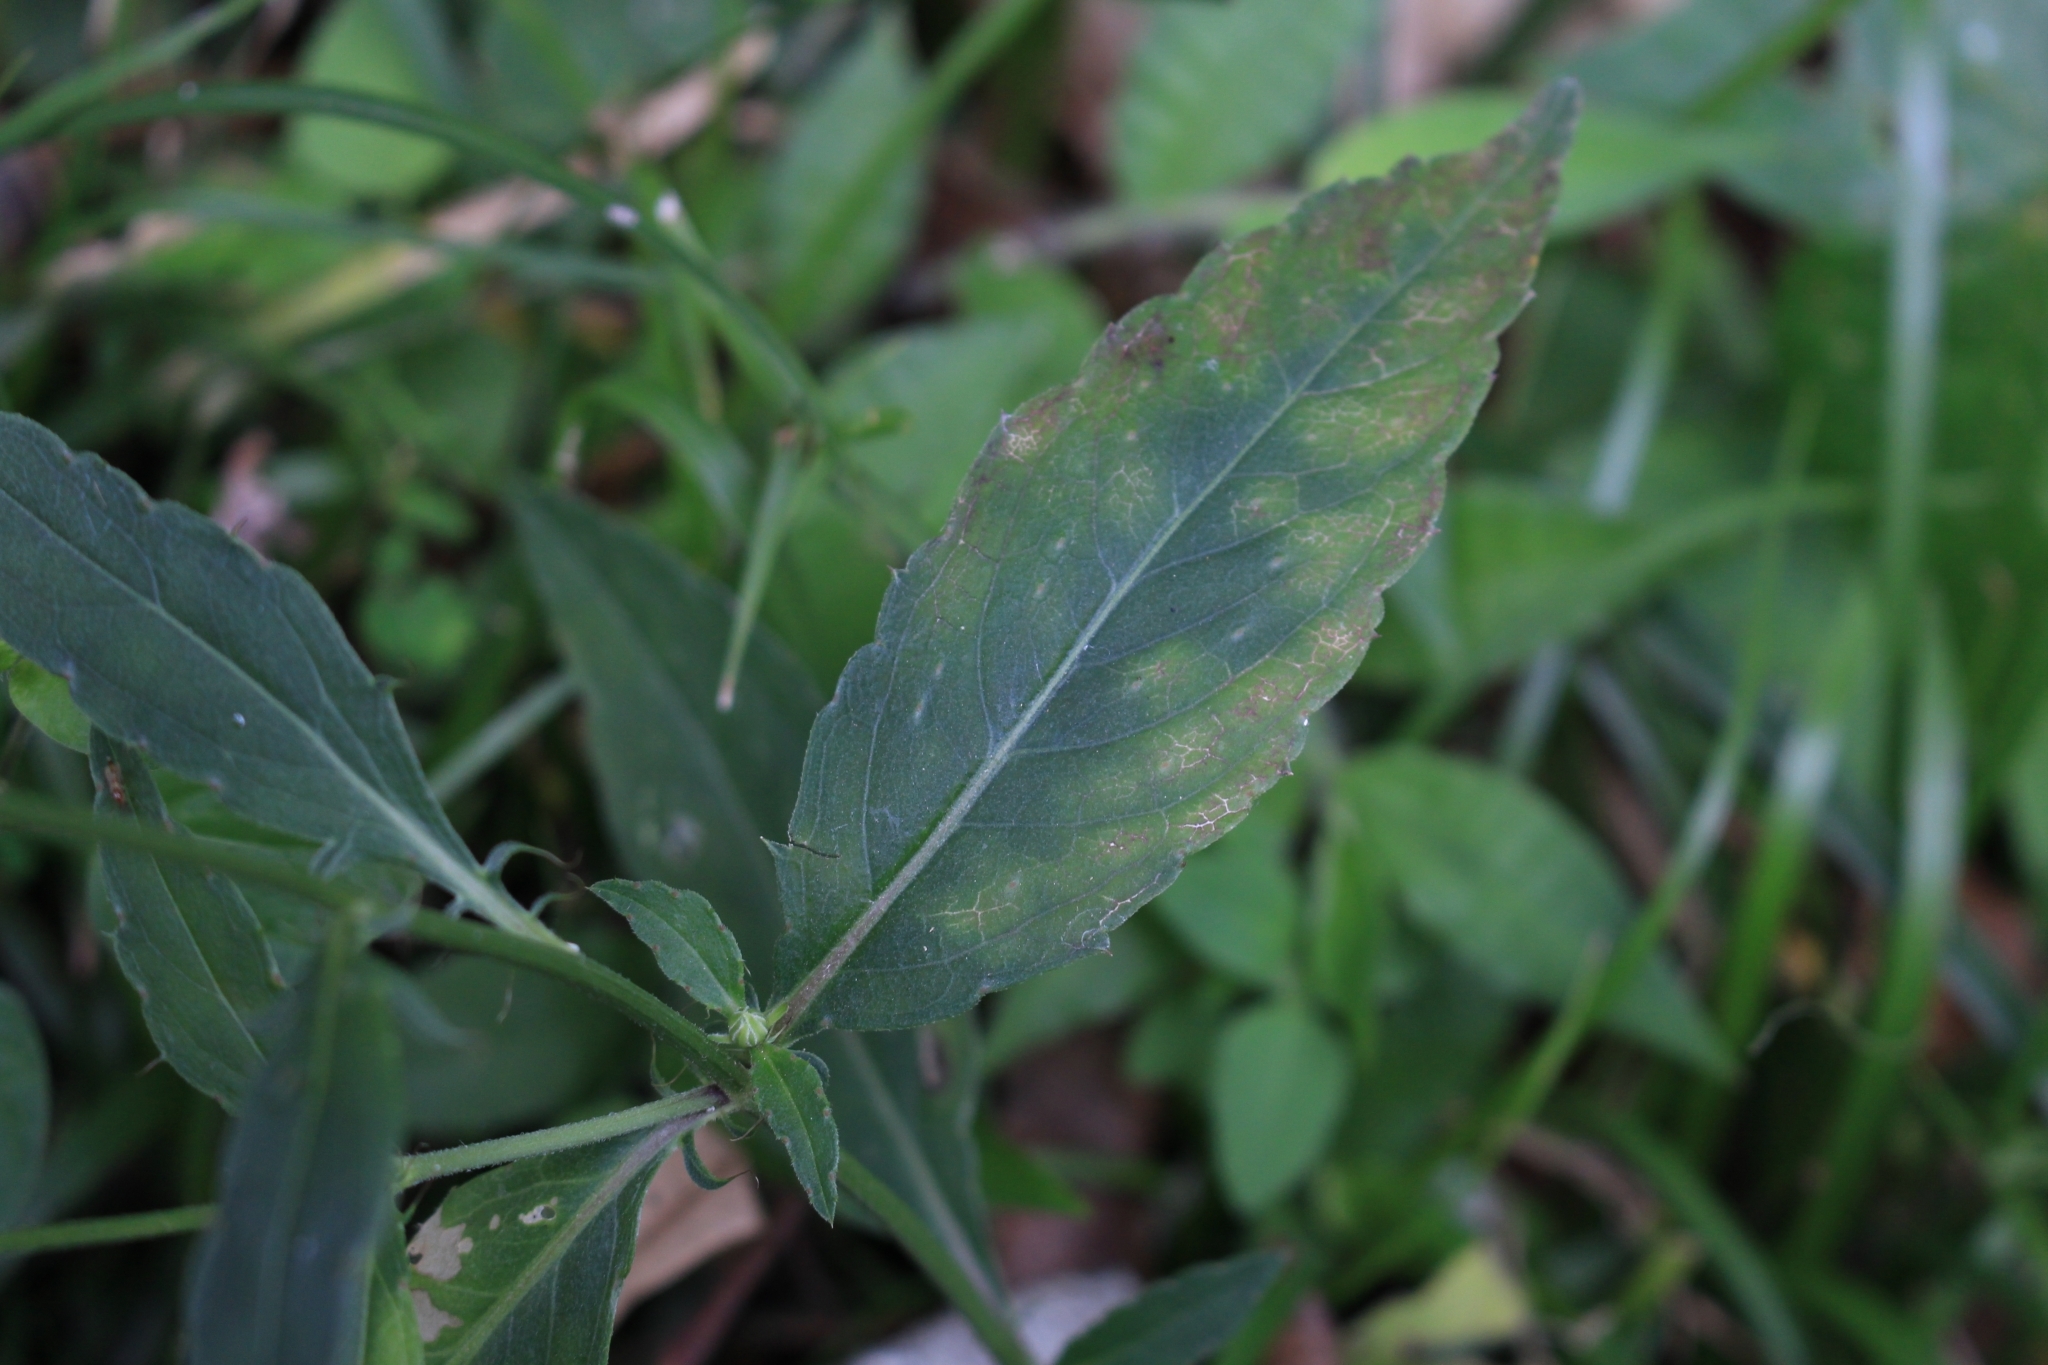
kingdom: Plantae
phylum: Tracheophyta
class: Magnoliopsida
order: Asterales
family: Asteraceae
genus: Comaclinium
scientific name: Comaclinium montanum
